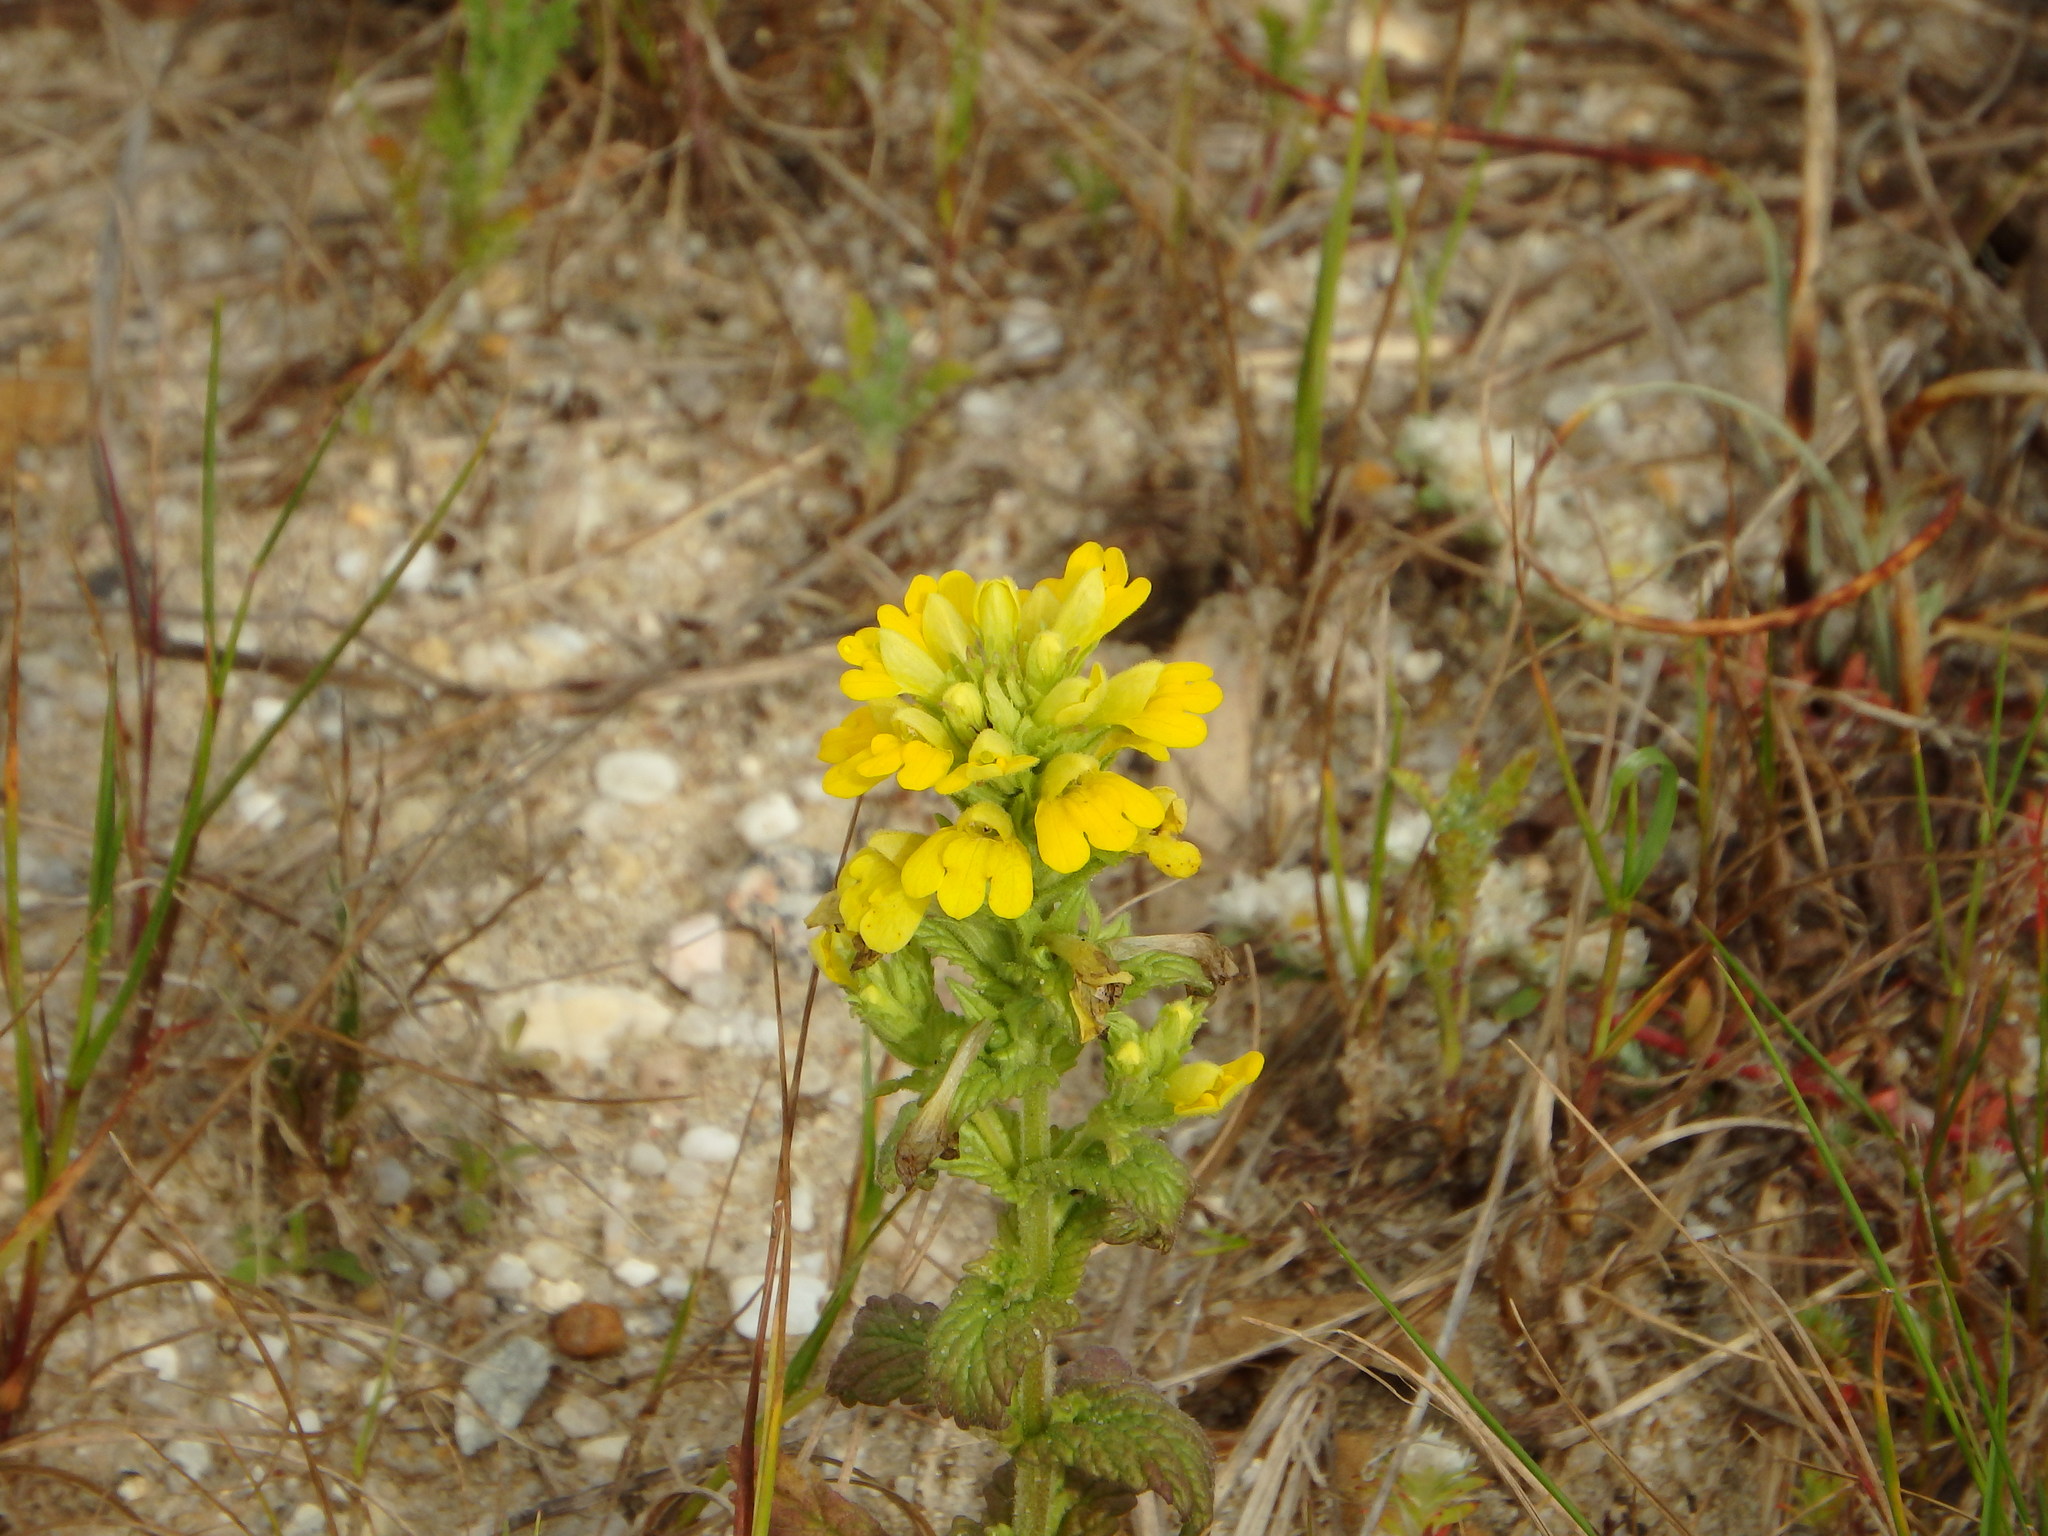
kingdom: Plantae
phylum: Tracheophyta
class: Magnoliopsida
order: Lamiales
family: Orobanchaceae
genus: Bellardia
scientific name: Bellardia viscosa
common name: Sticky parentucellia
